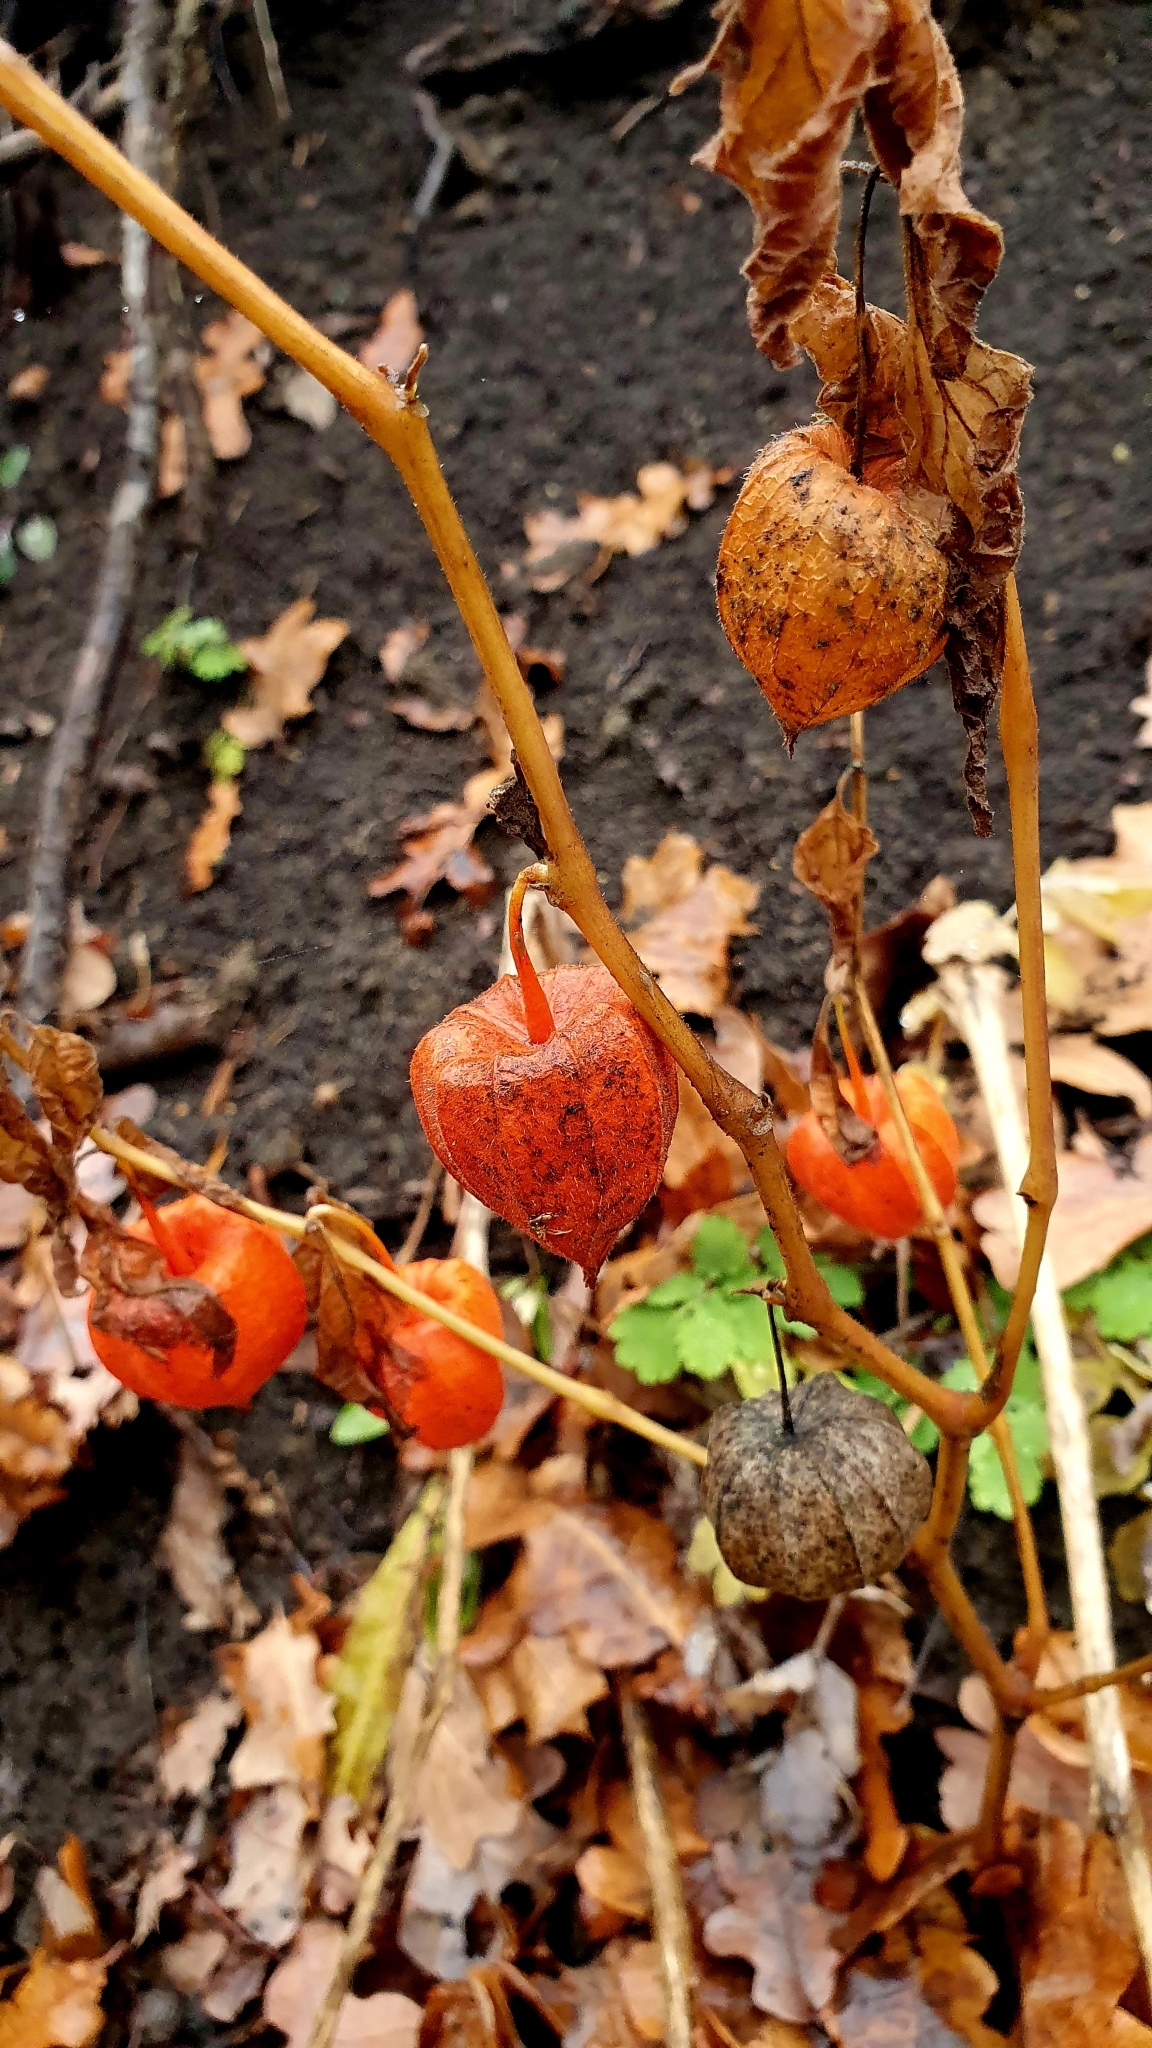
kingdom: Plantae
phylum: Tracheophyta
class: Magnoliopsida
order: Solanales
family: Solanaceae
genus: Alkekengi
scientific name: Alkekengi officinarum
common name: Japanese-lantern
